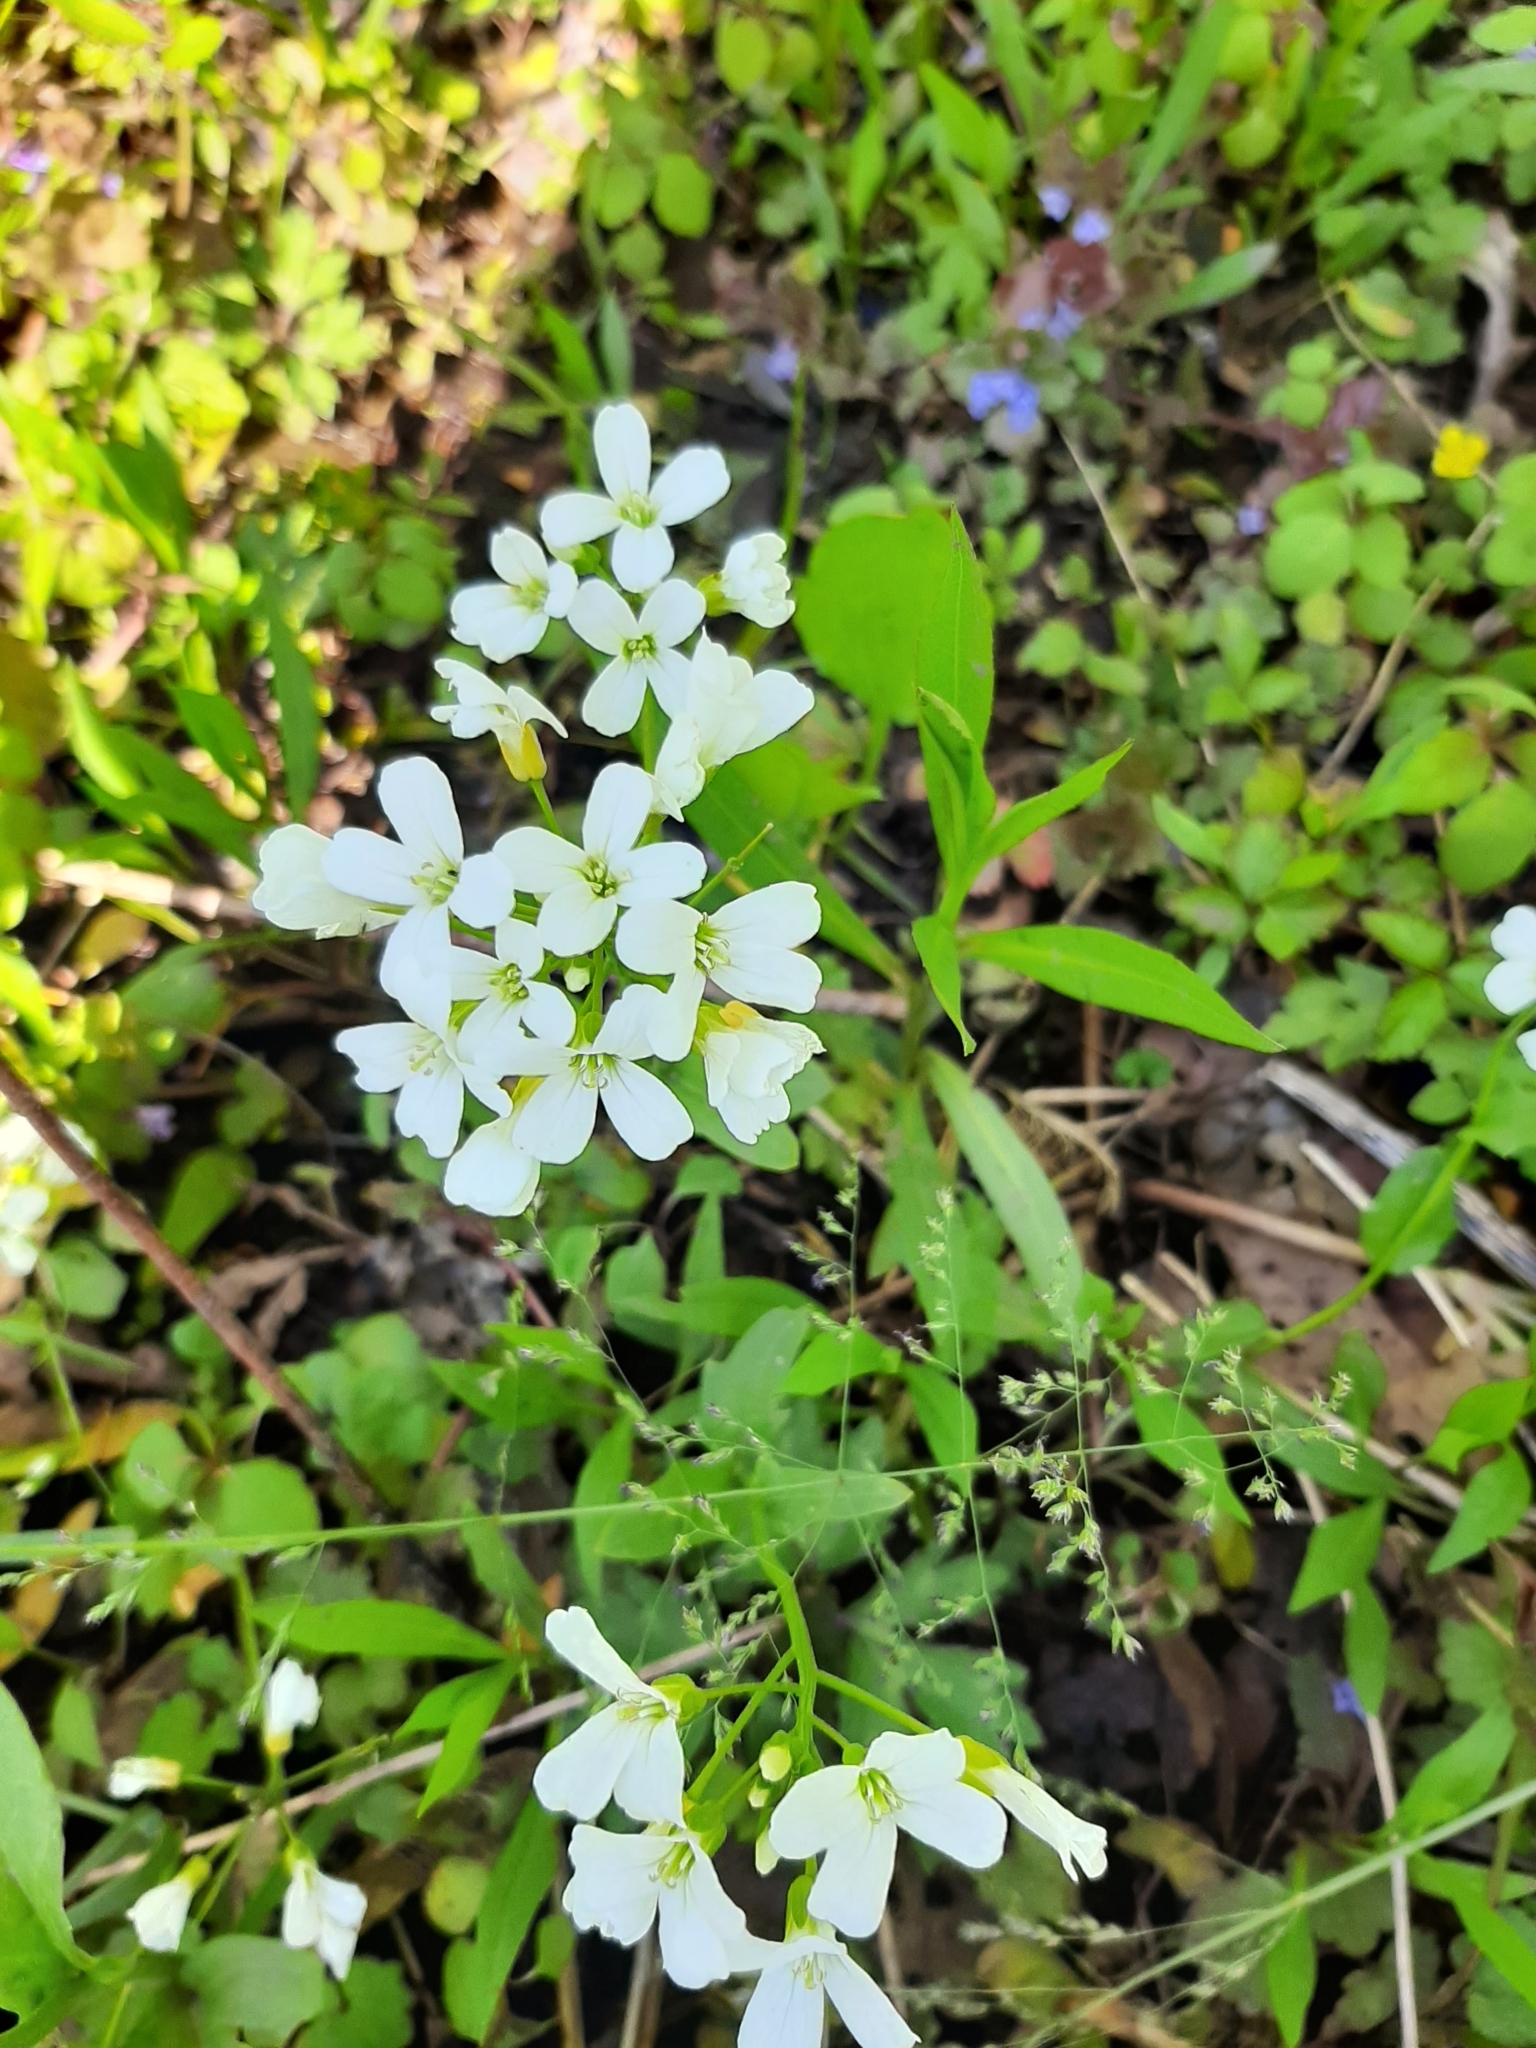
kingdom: Plantae
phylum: Tracheophyta
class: Magnoliopsida
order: Brassicales
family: Brassicaceae
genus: Cardamine
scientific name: Cardamine bulbosa
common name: Spring cress
